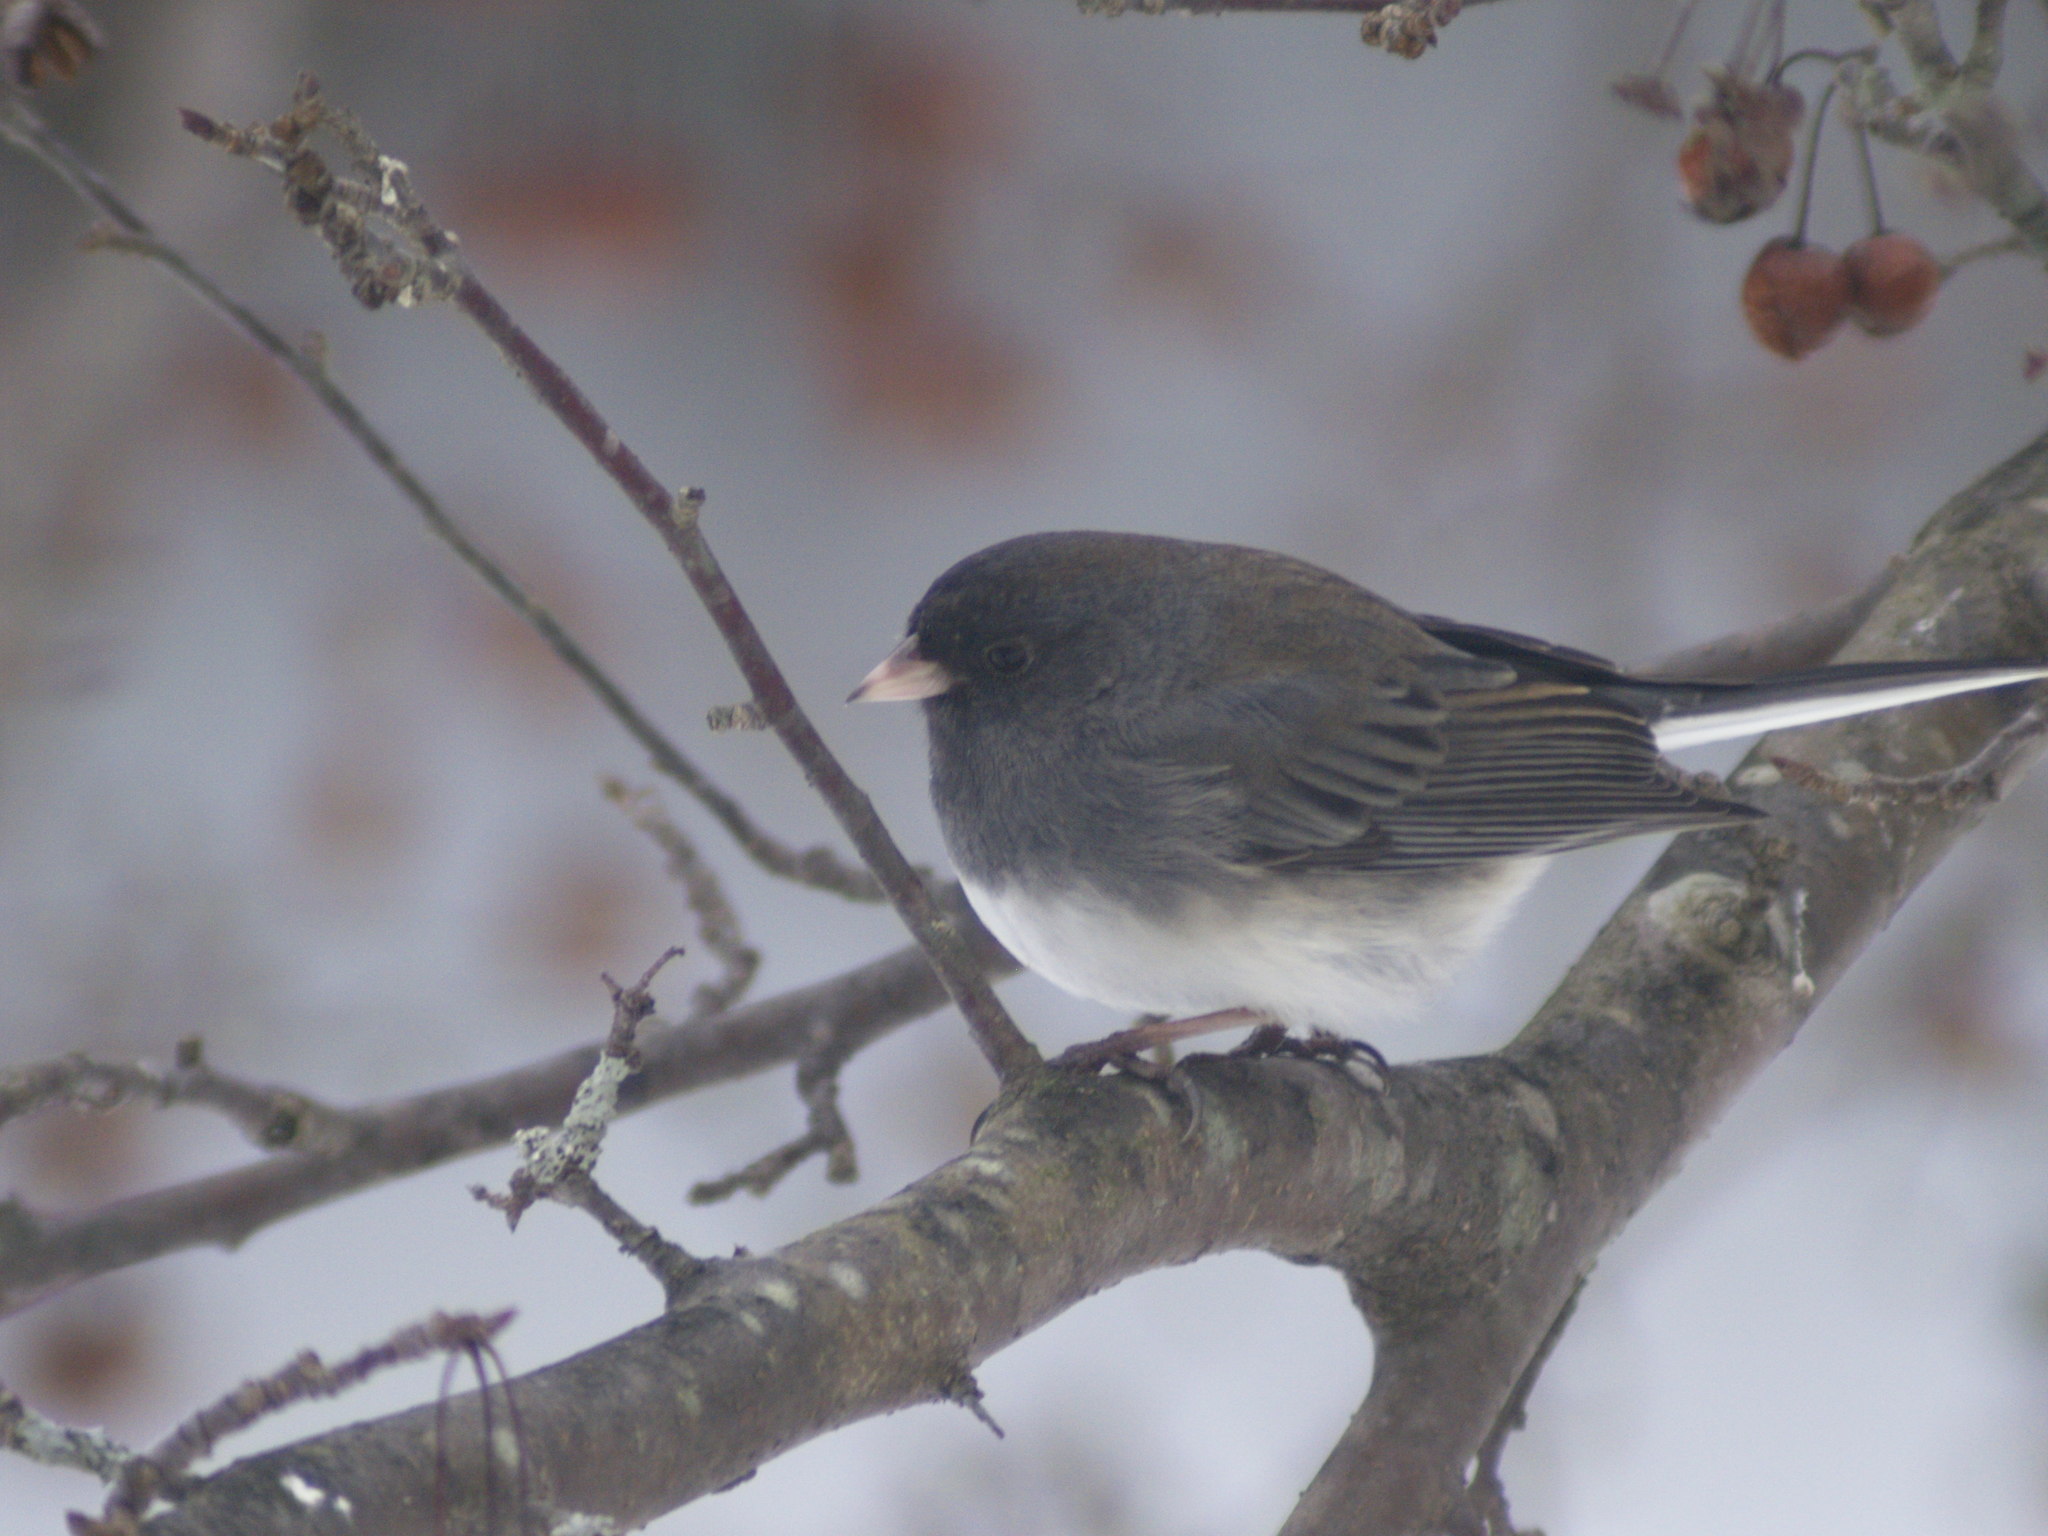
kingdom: Animalia
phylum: Chordata
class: Aves
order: Passeriformes
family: Passerellidae
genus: Junco
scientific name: Junco hyemalis
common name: Dark-eyed junco
